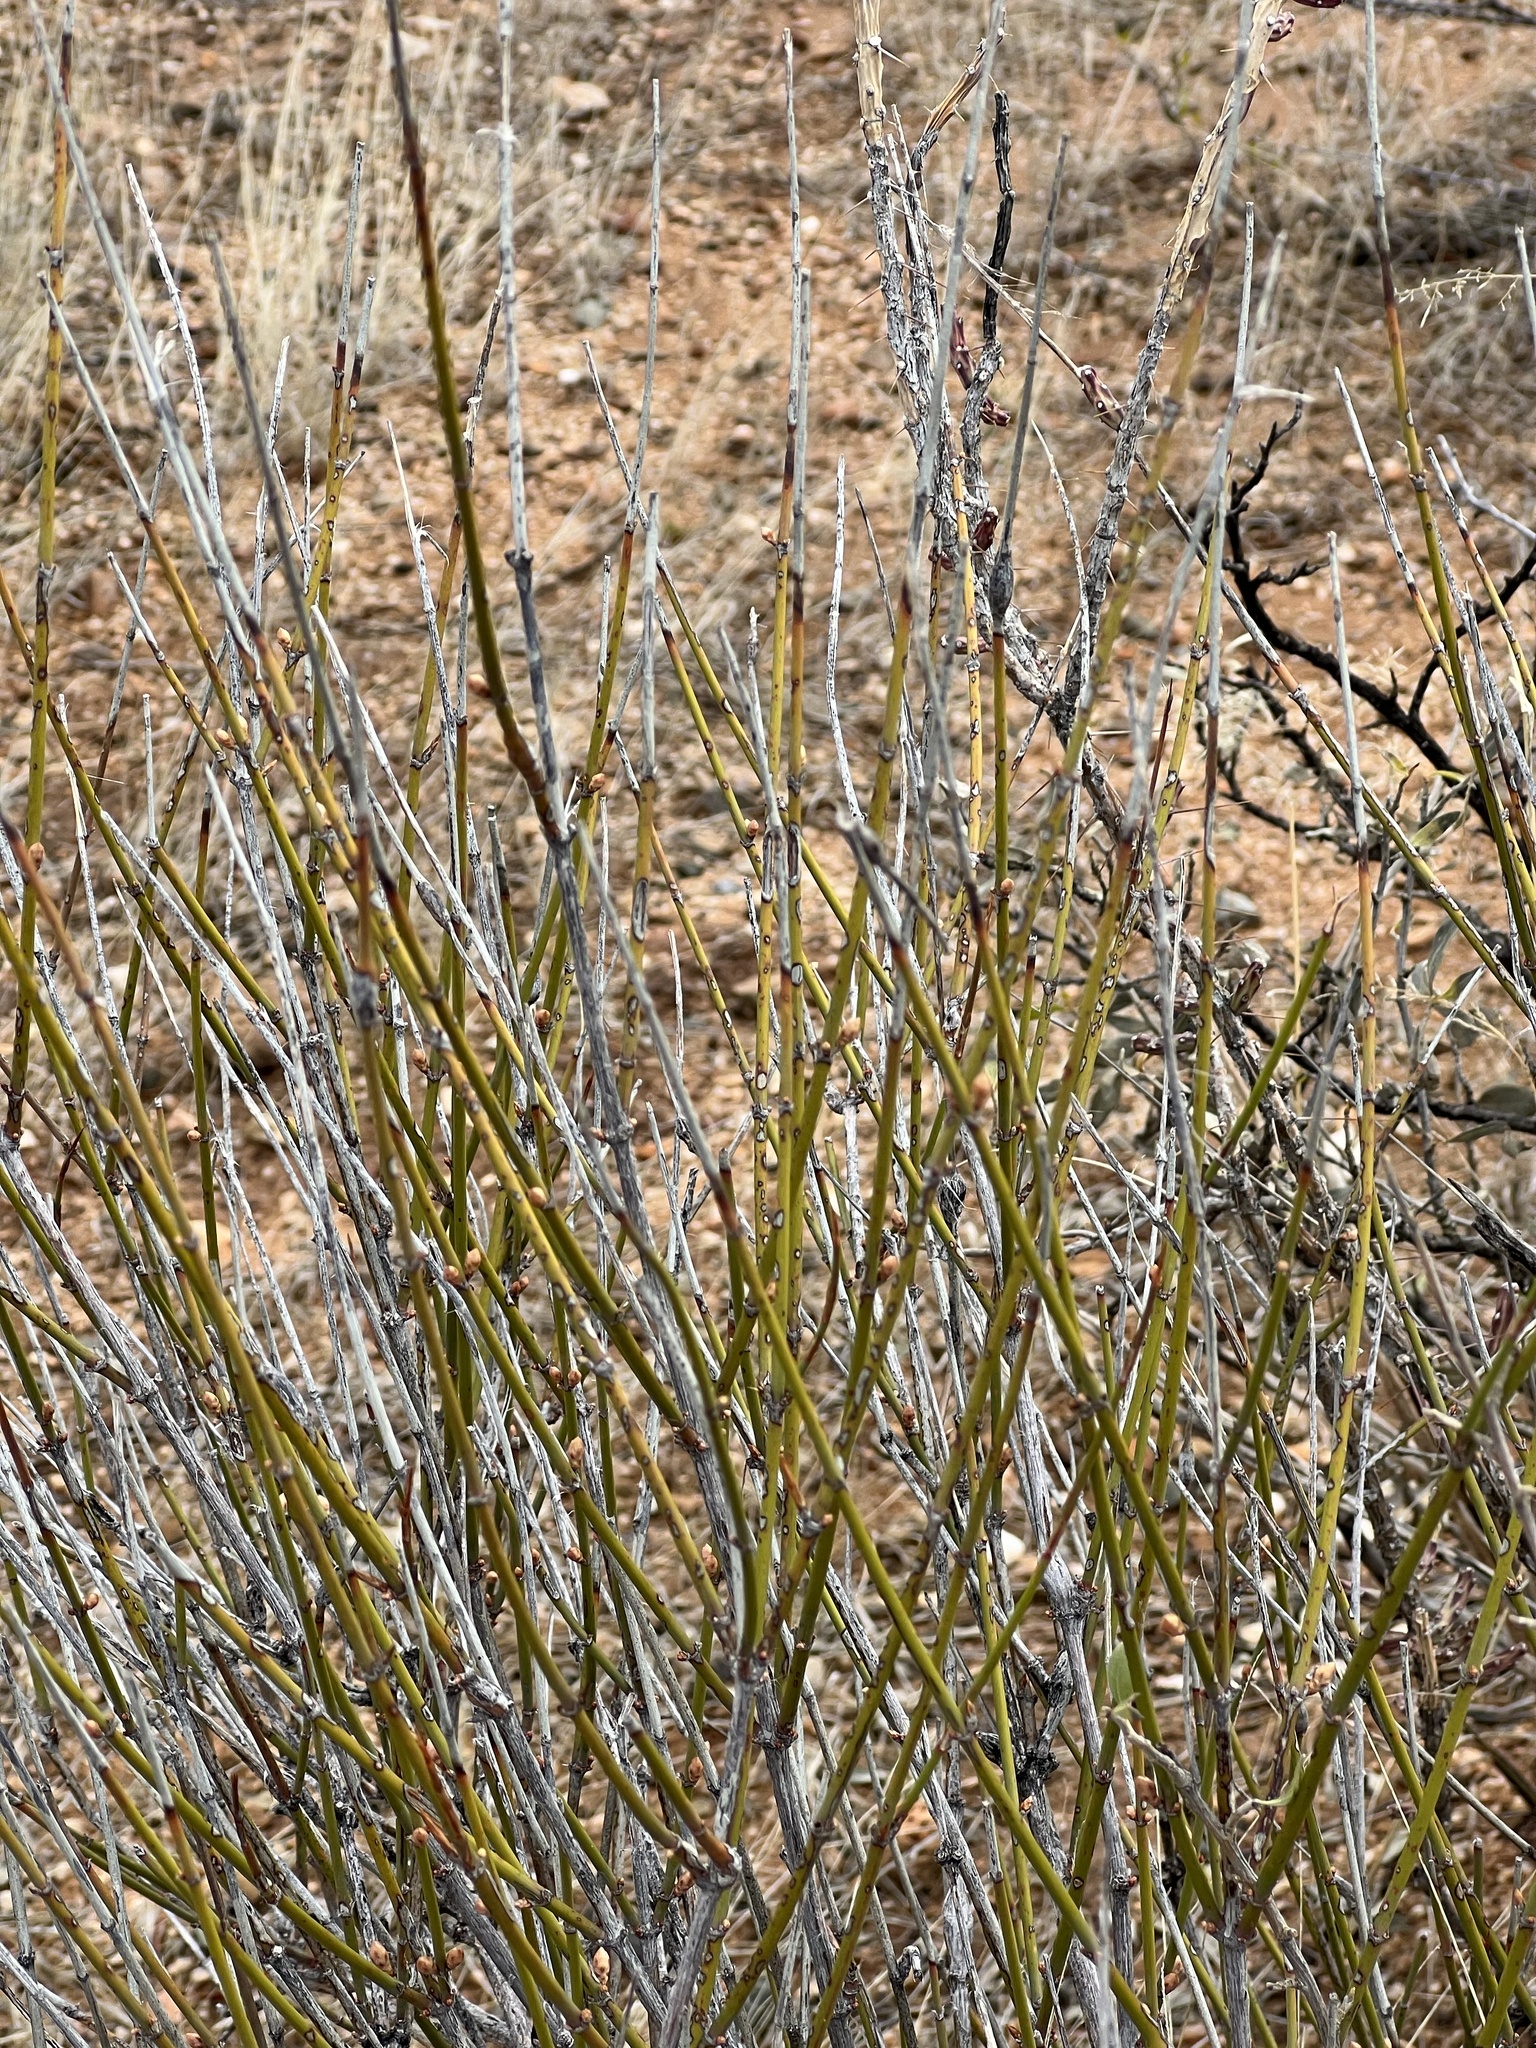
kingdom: Plantae
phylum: Tracheophyta
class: Gnetopsida
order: Ephedrales
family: Ephedraceae
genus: Ephedra
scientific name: Ephedra trifurca
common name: Mexican-tea
